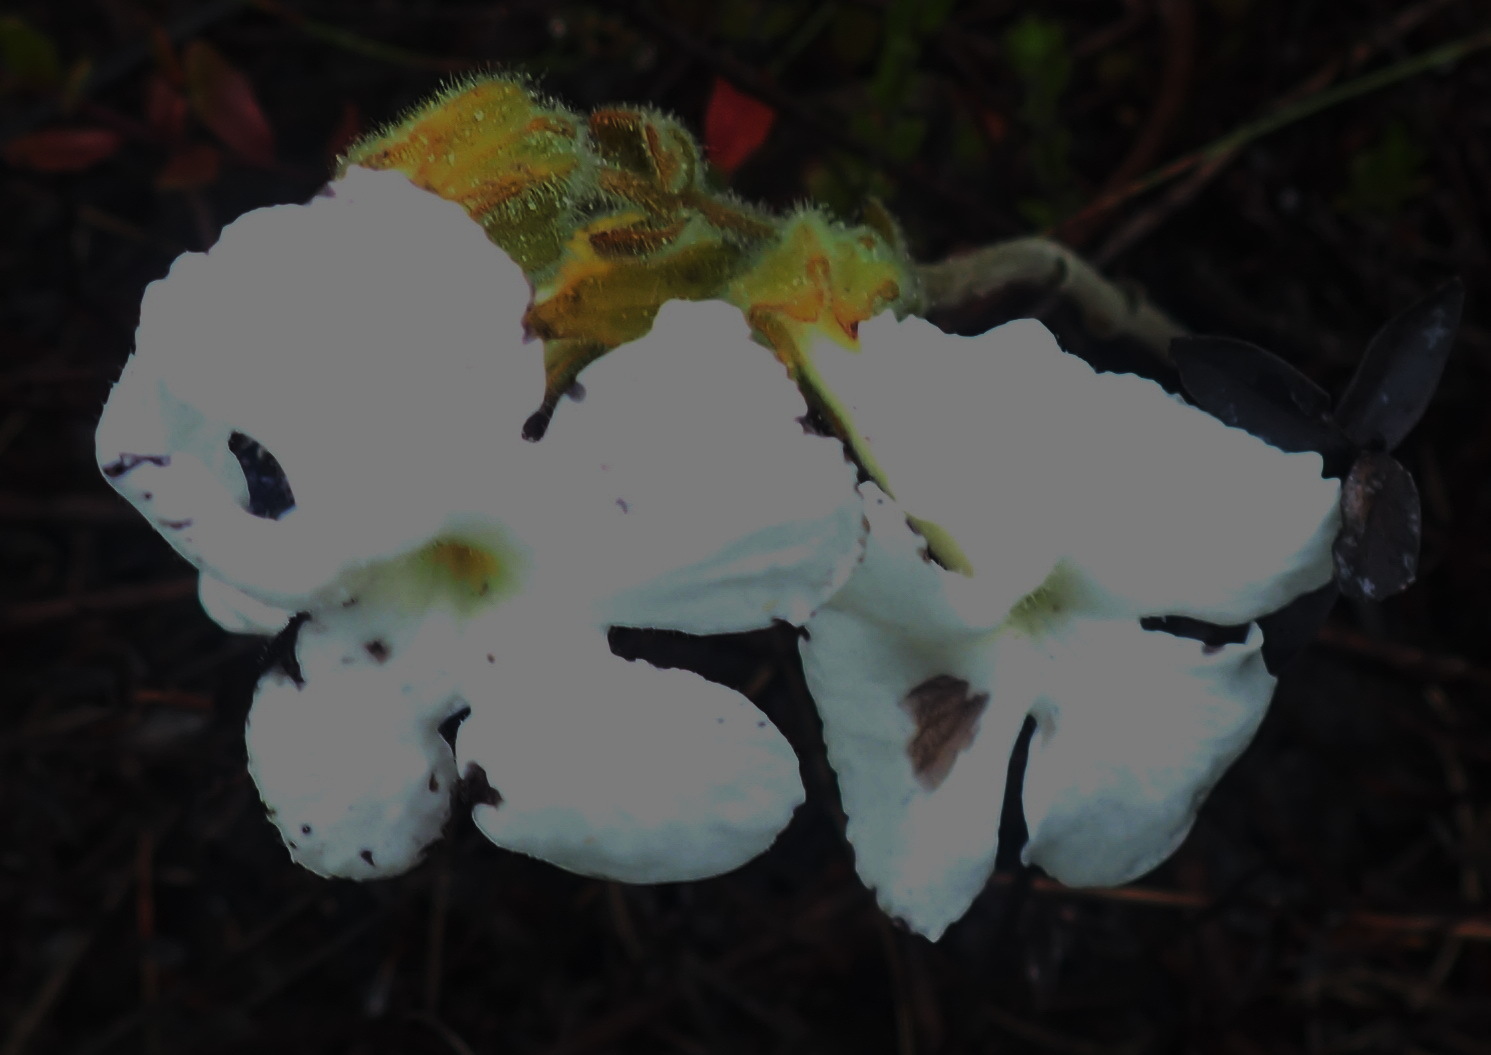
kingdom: Plantae
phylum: Tracheophyta
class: Magnoliopsida
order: Lamiales
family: Orobanchaceae
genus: Harveya
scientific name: Harveya capensis
